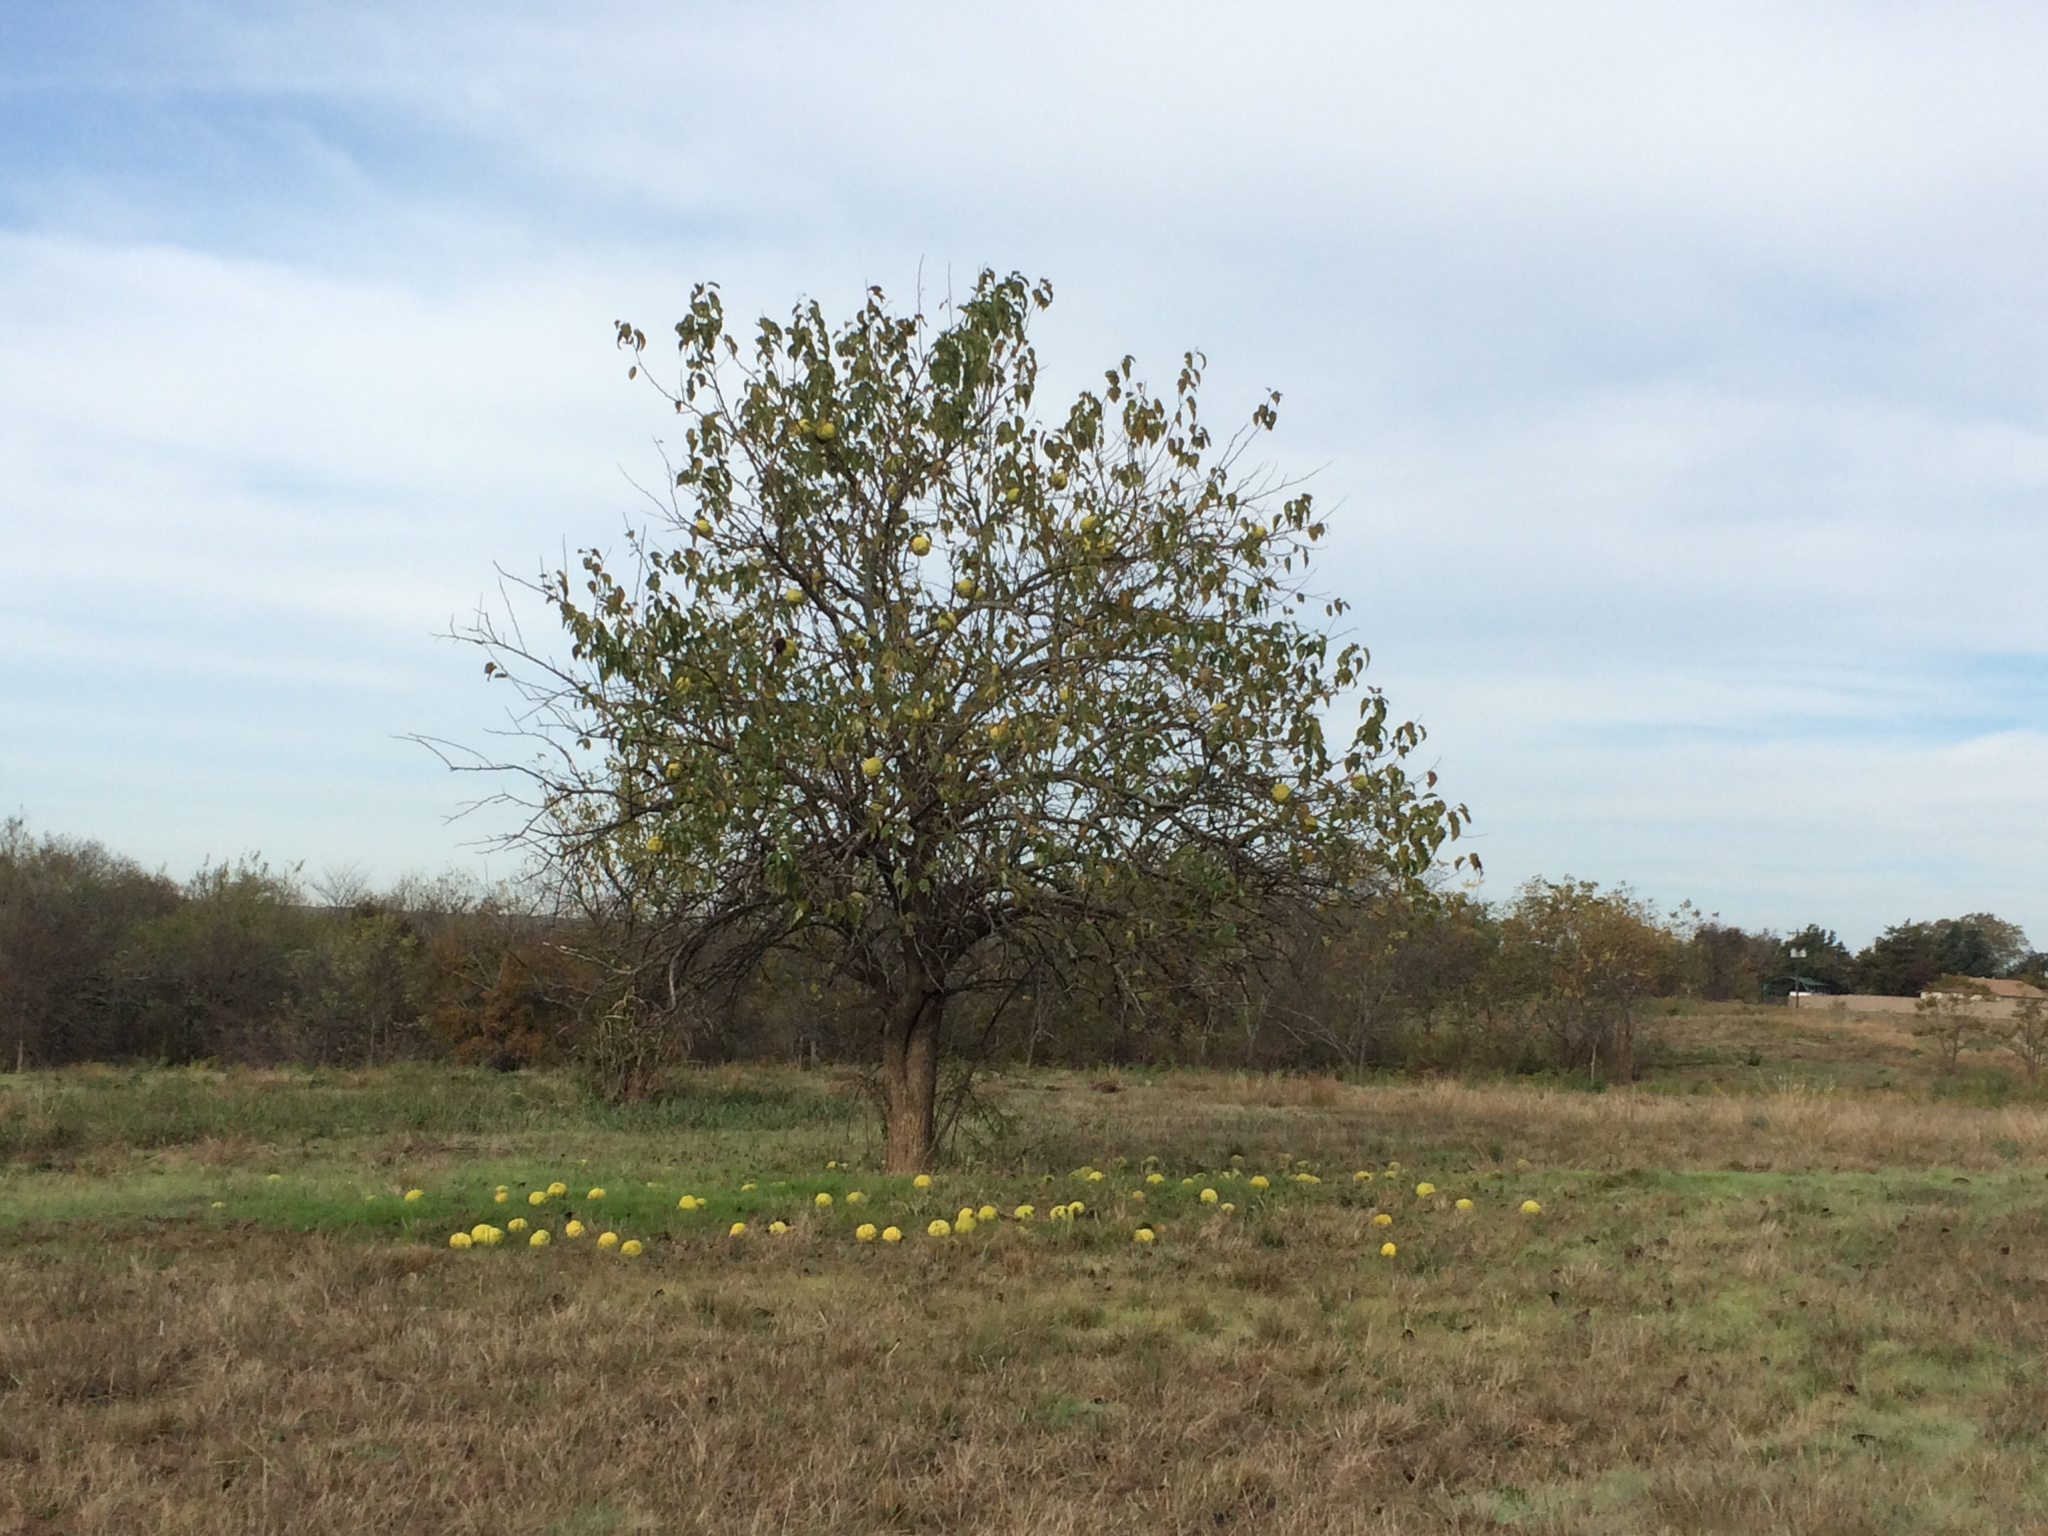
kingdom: Plantae
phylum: Tracheophyta
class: Magnoliopsida
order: Rosales
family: Moraceae
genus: Maclura
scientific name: Maclura pomifera
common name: Osage-orange
